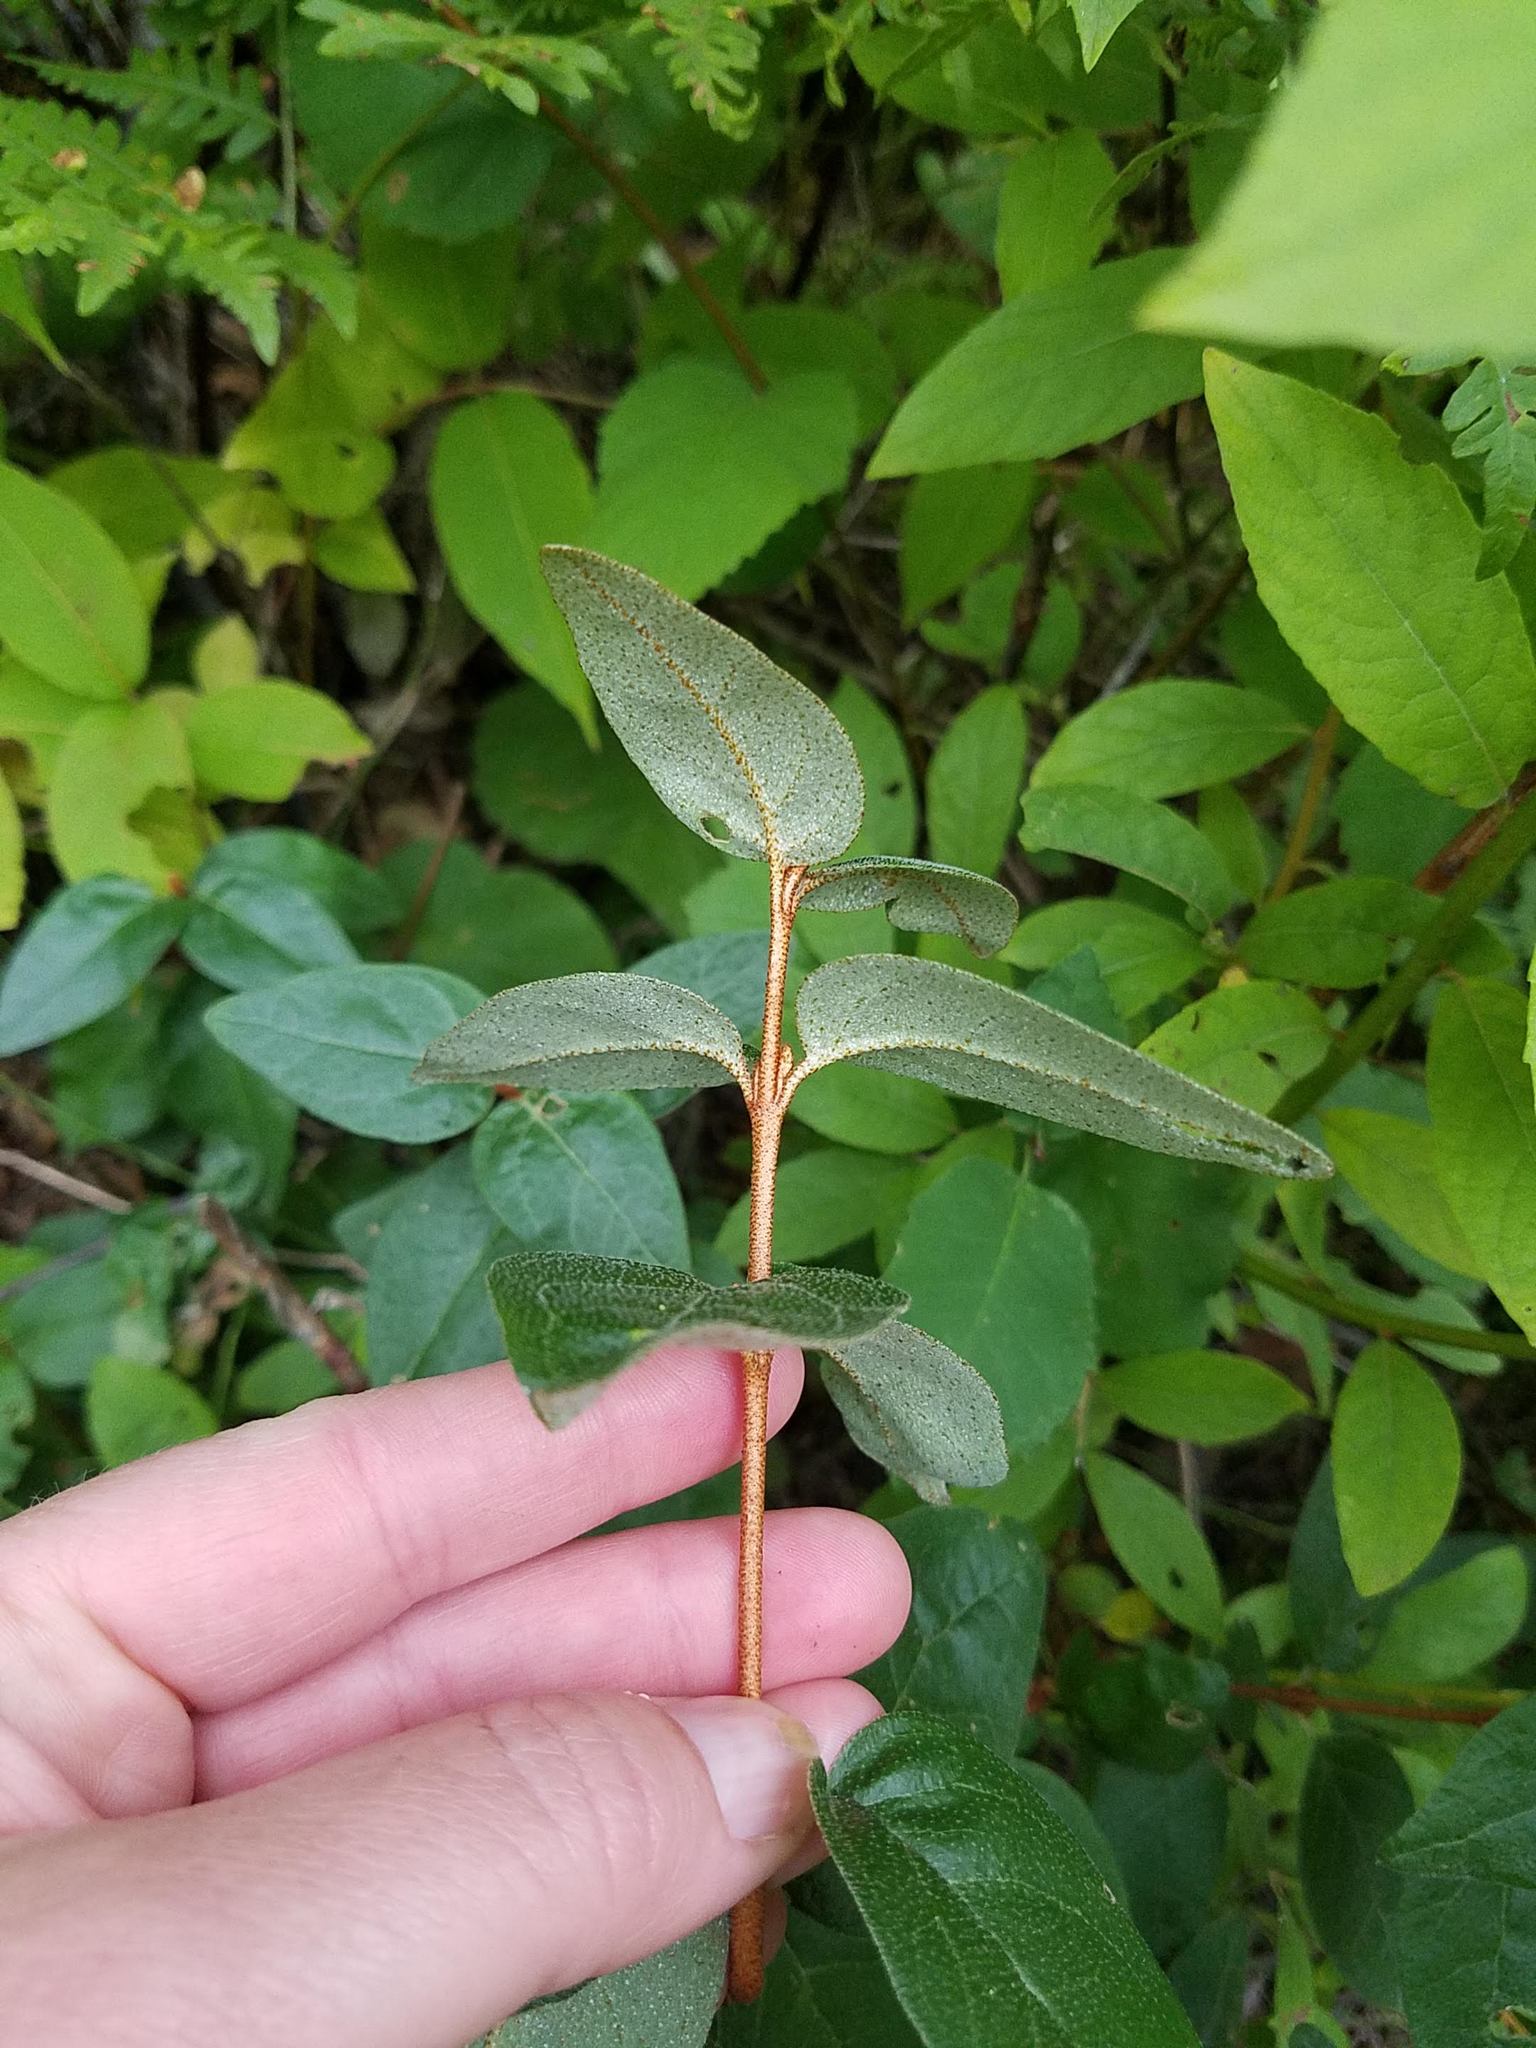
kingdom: Plantae
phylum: Tracheophyta
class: Magnoliopsida
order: Rosales
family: Elaeagnaceae
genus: Shepherdia
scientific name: Shepherdia canadensis
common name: Soapberry
